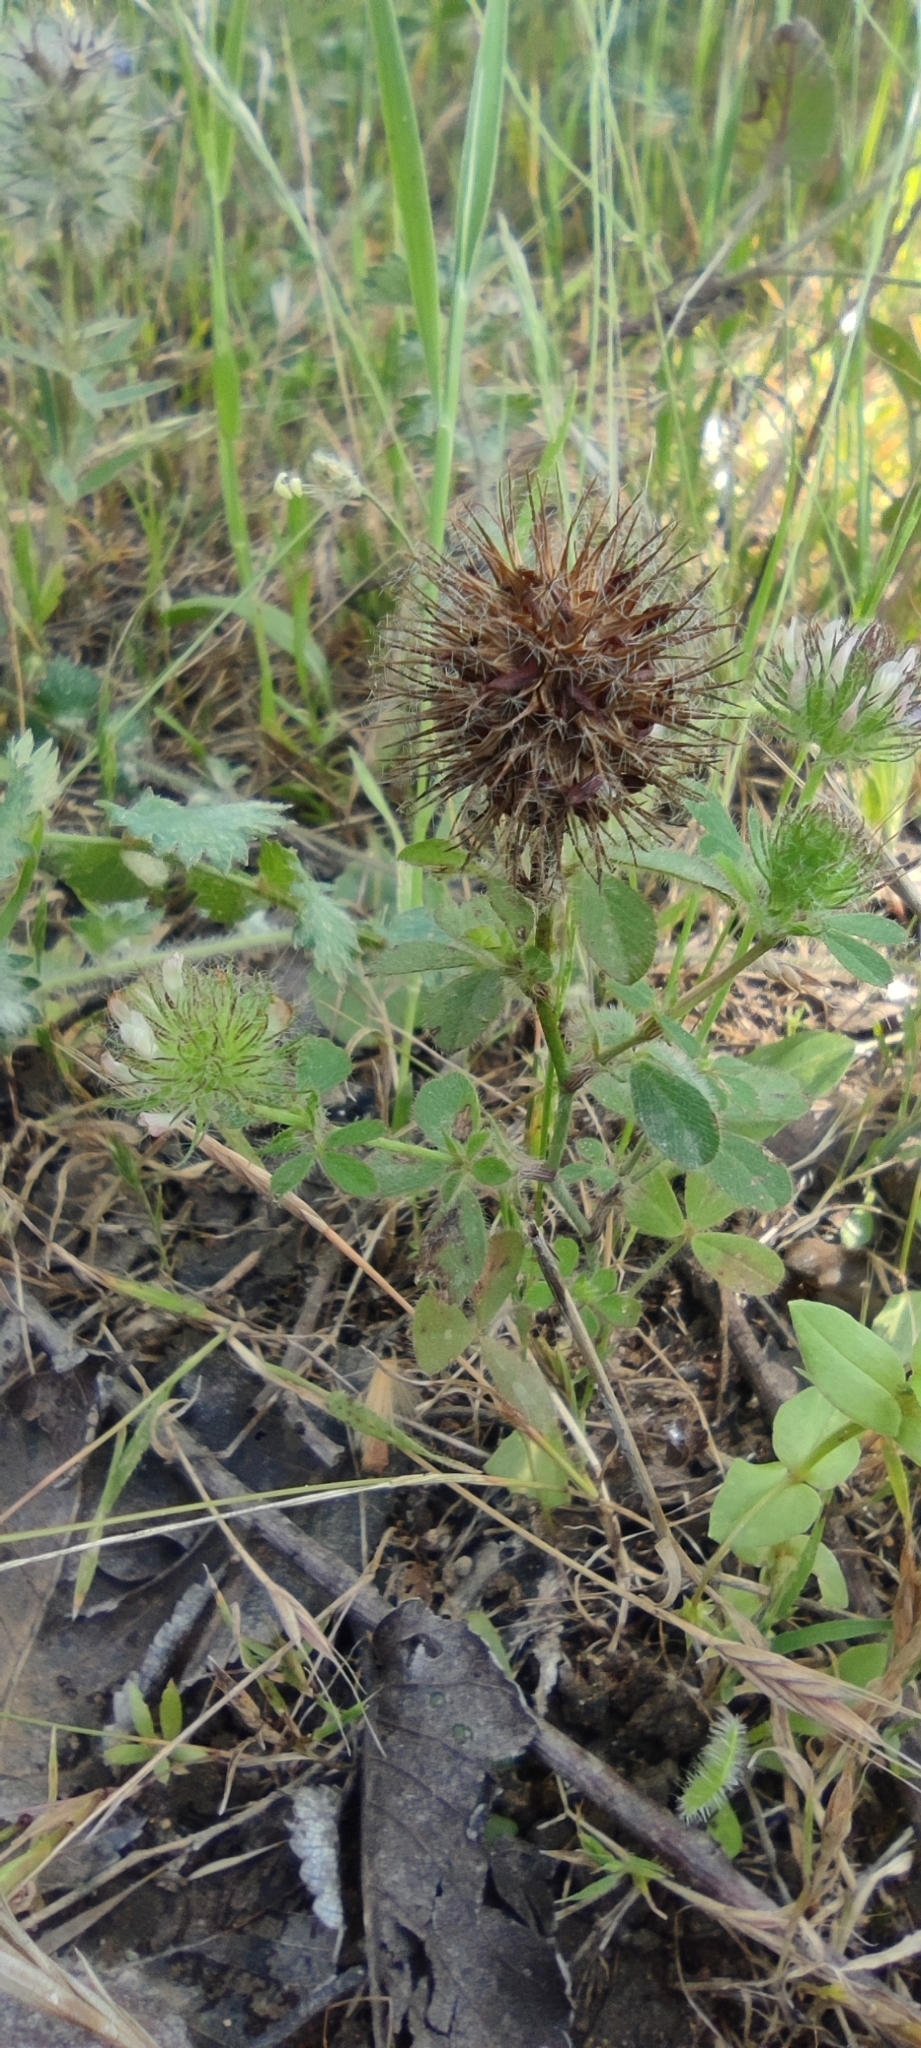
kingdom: Plantae
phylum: Tracheophyta
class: Magnoliopsida
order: Fabales
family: Fabaceae
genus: Trifolium
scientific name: Trifolium lappaceum
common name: Bur clover
